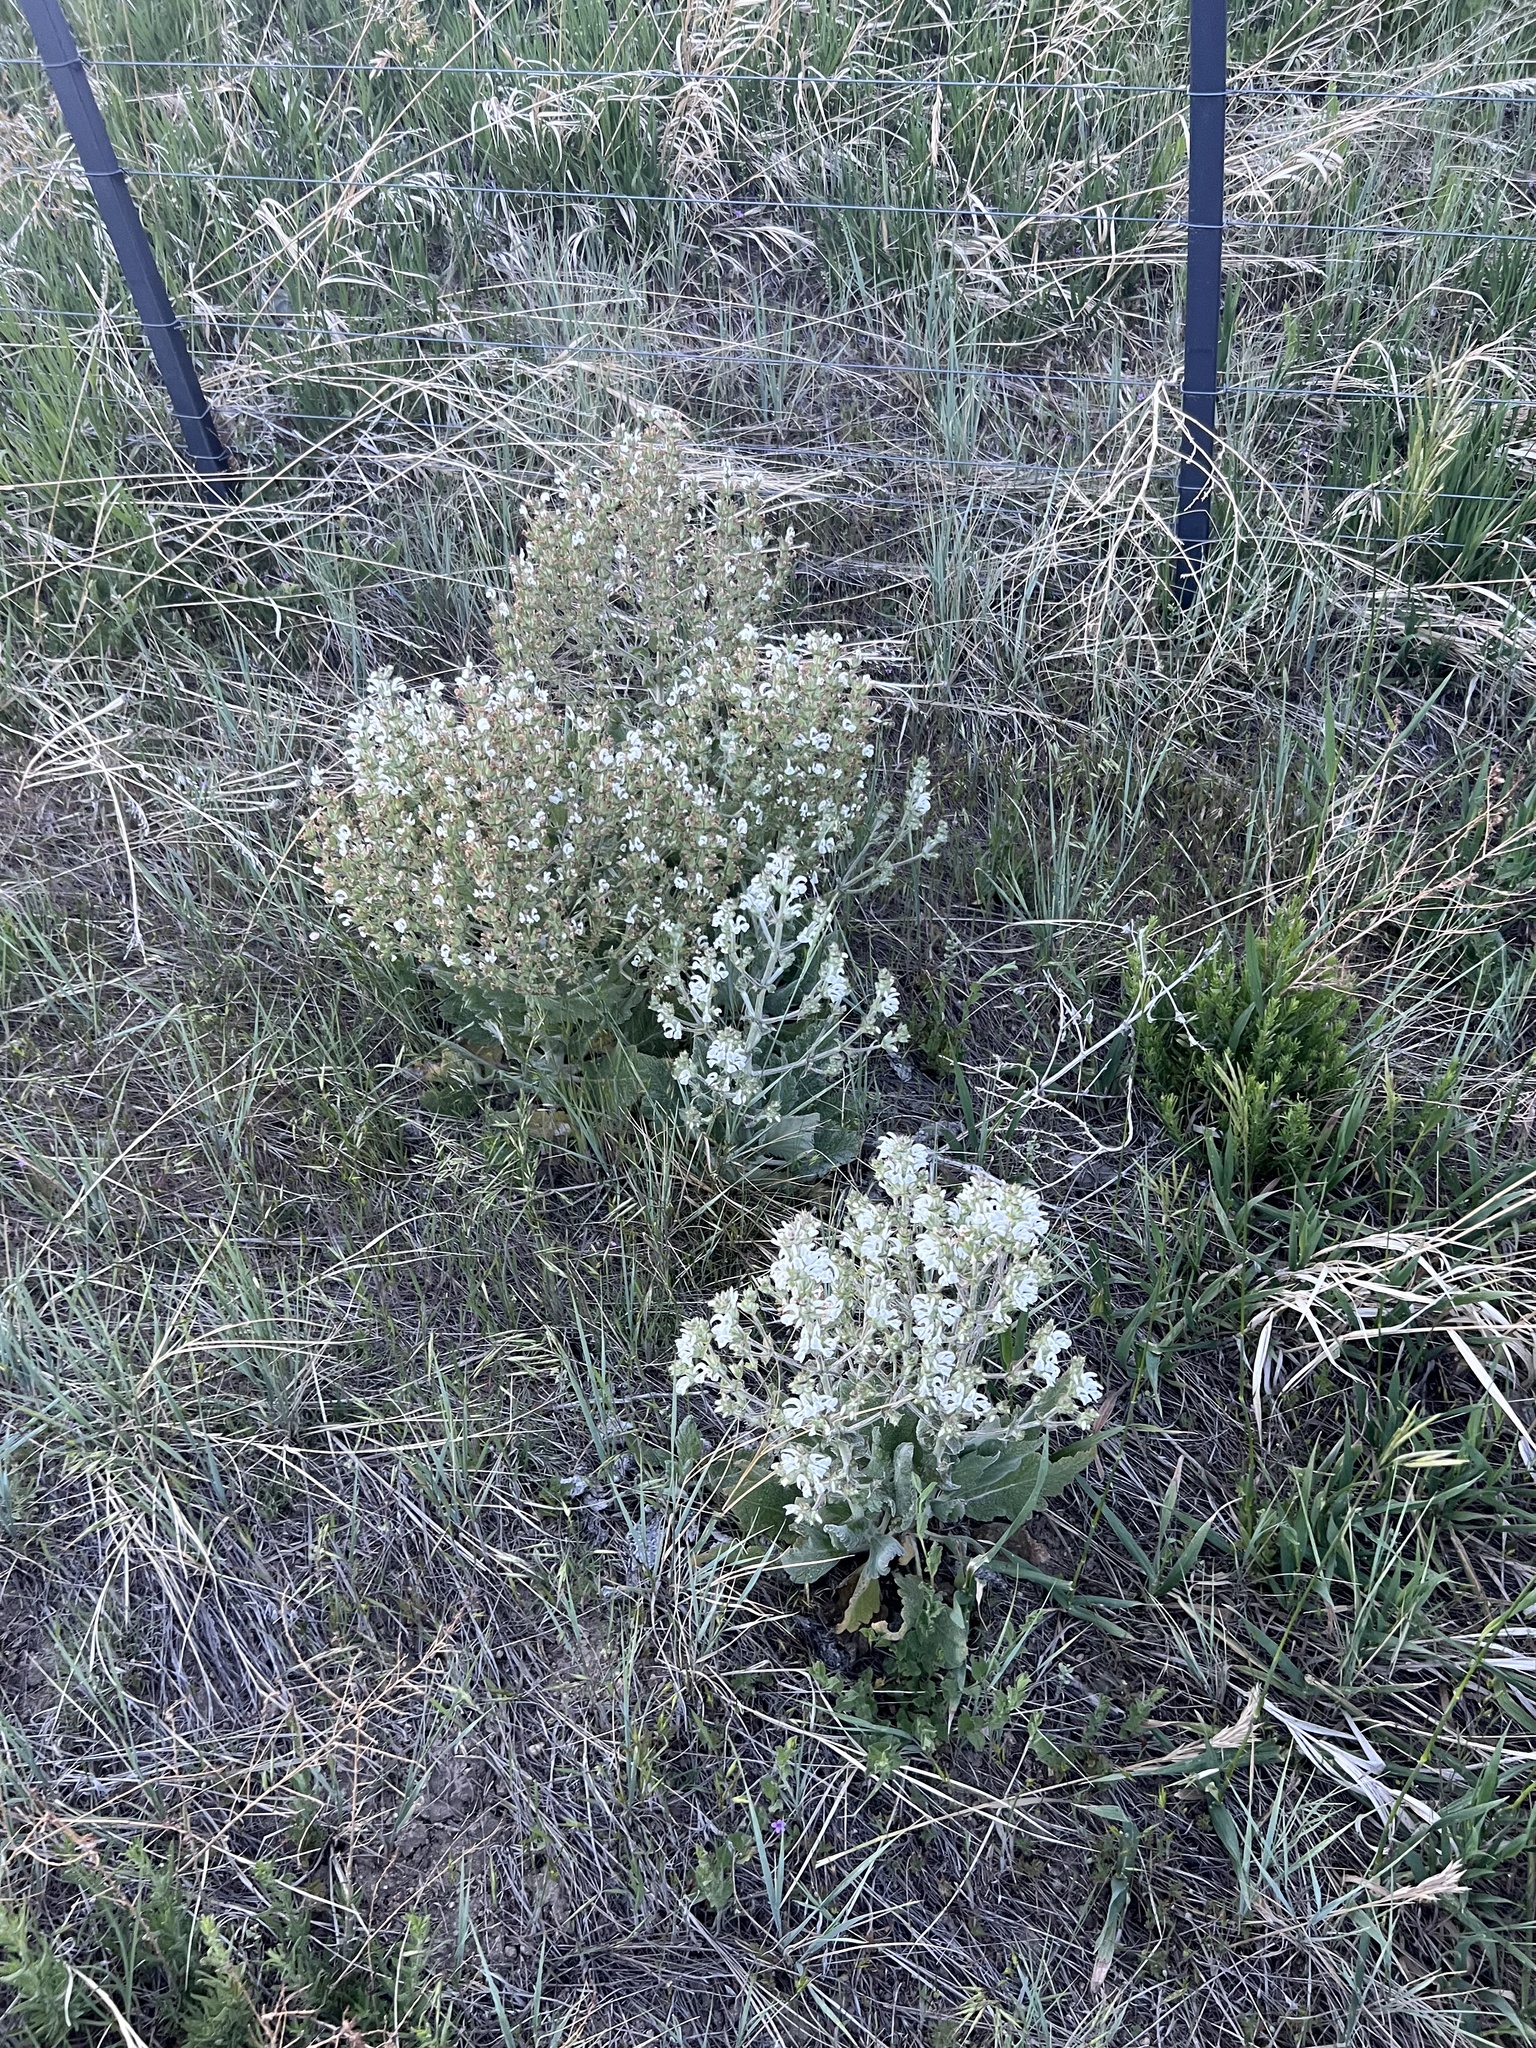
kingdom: Plantae
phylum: Tracheophyta
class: Magnoliopsida
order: Lamiales
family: Lamiaceae
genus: Salvia
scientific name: Salvia aethiopis
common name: Mediterranean sage
